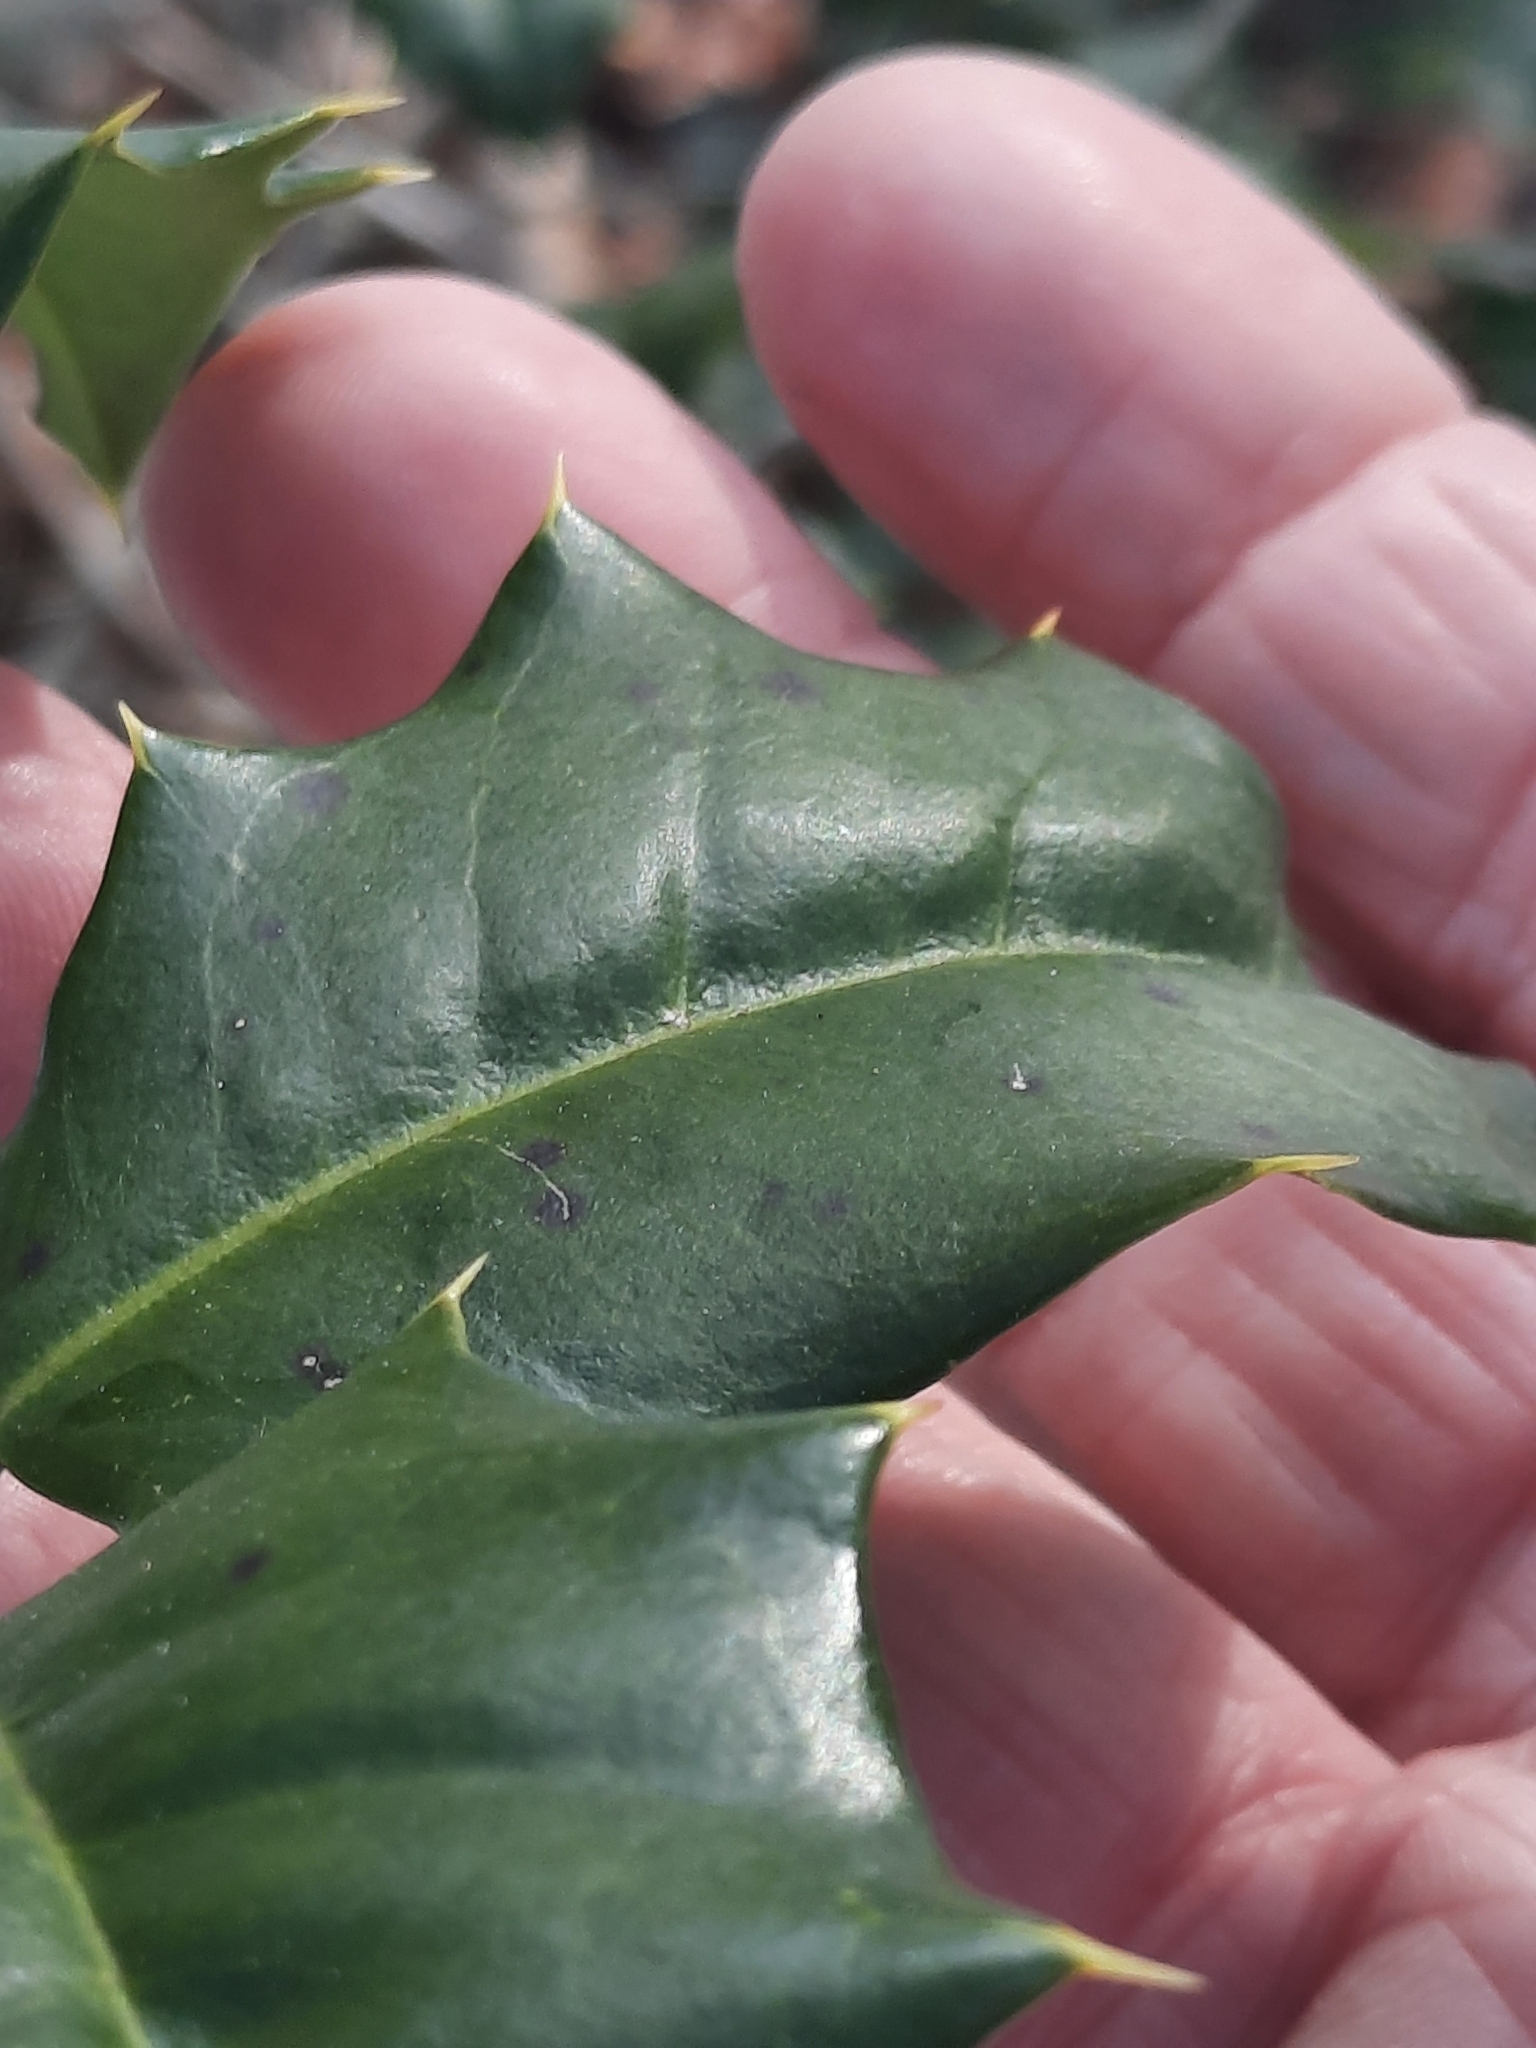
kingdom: Plantae
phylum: Tracheophyta
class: Magnoliopsida
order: Aquifoliales
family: Aquifoliaceae
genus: Ilex
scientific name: Ilex opaca
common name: American holly
